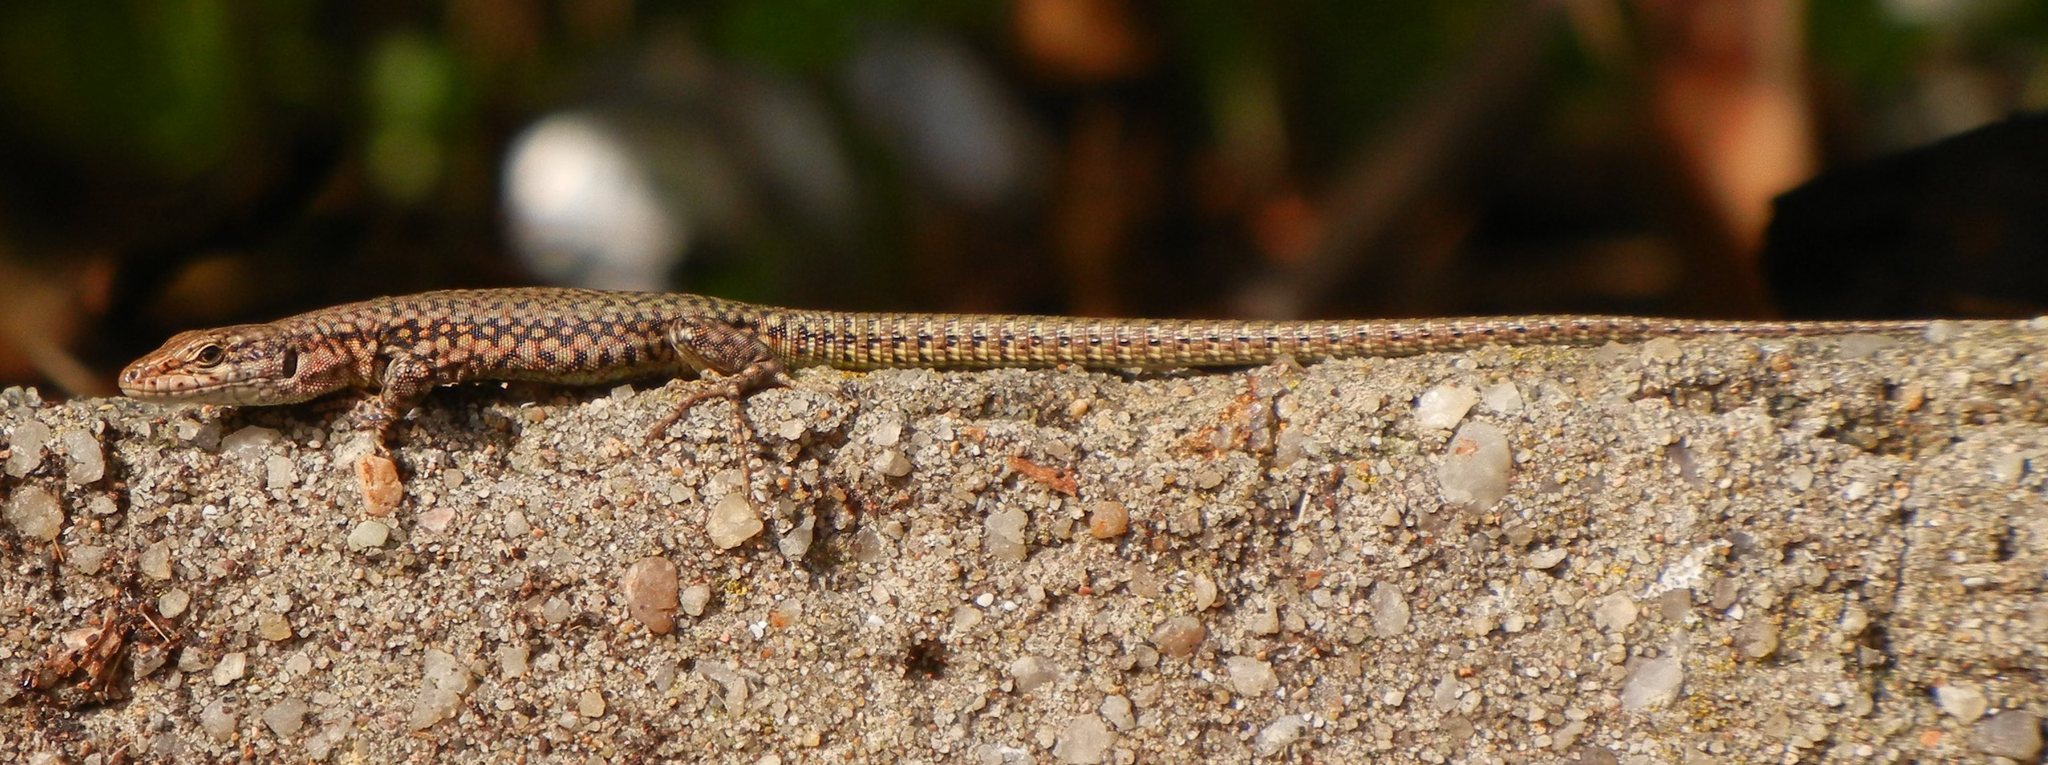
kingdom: Animalia
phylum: Chordata
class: Squamata
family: Lacertidae
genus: Podarcis
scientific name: Podarcis virescens
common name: Geniez’s wall lizard
